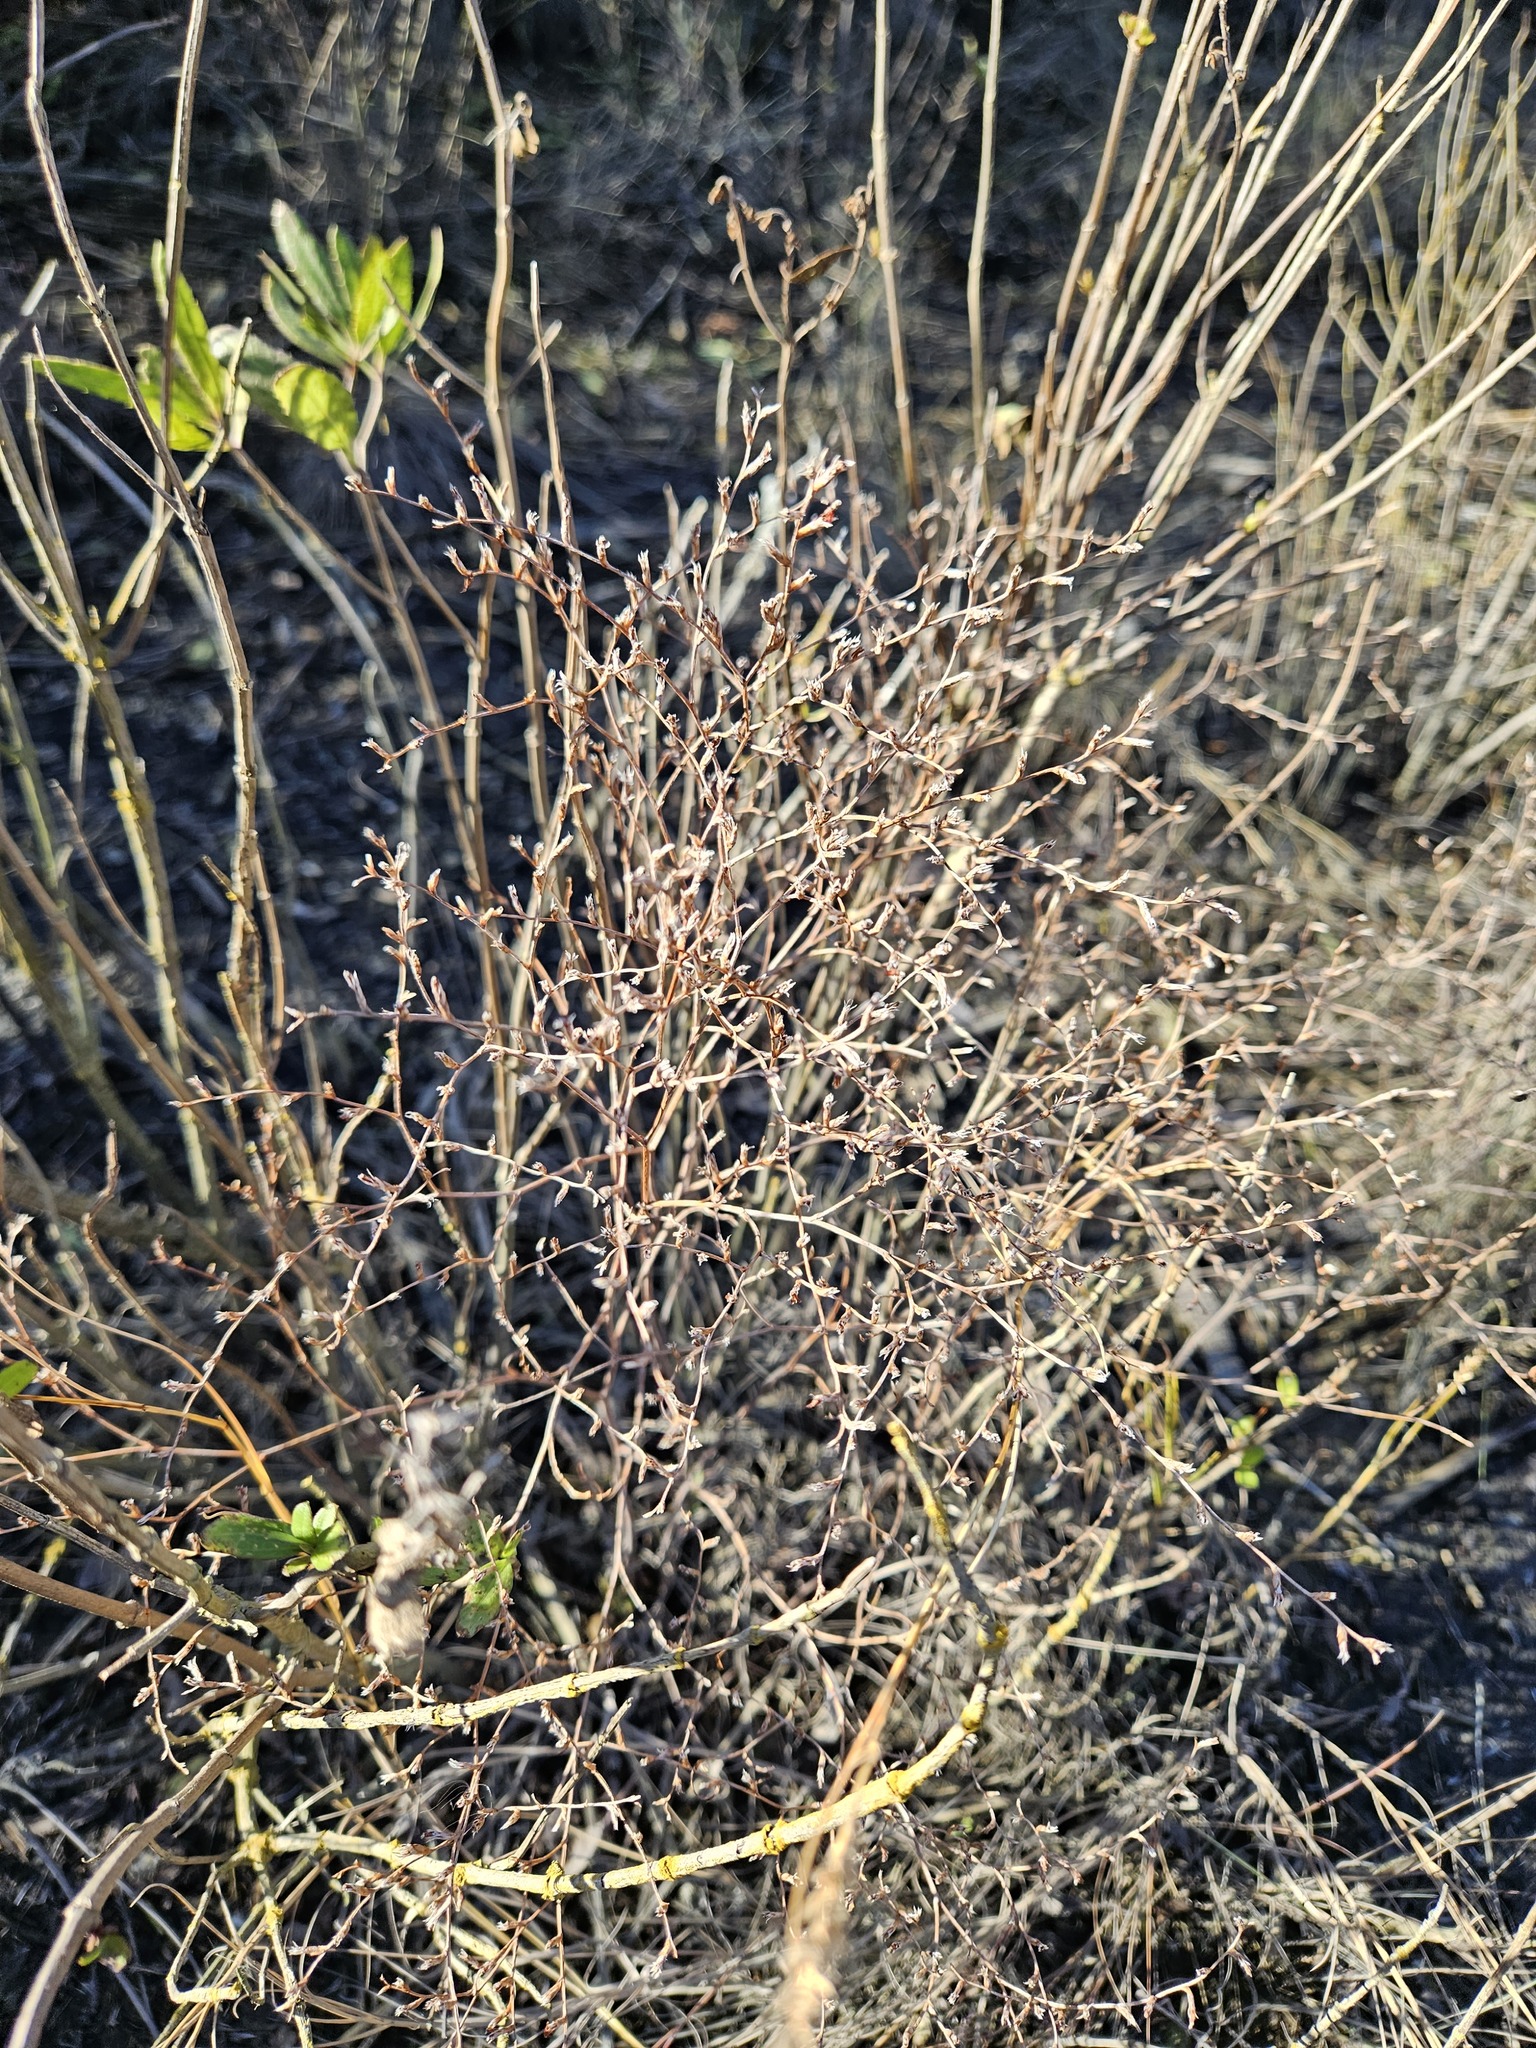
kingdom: Plantae
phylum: Tracheophyta
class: Magnoliopsida
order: Caryophyllales
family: Plumbaginaceae
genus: Limonium
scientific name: Limonium carolinianum
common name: Carolina sea lavender
